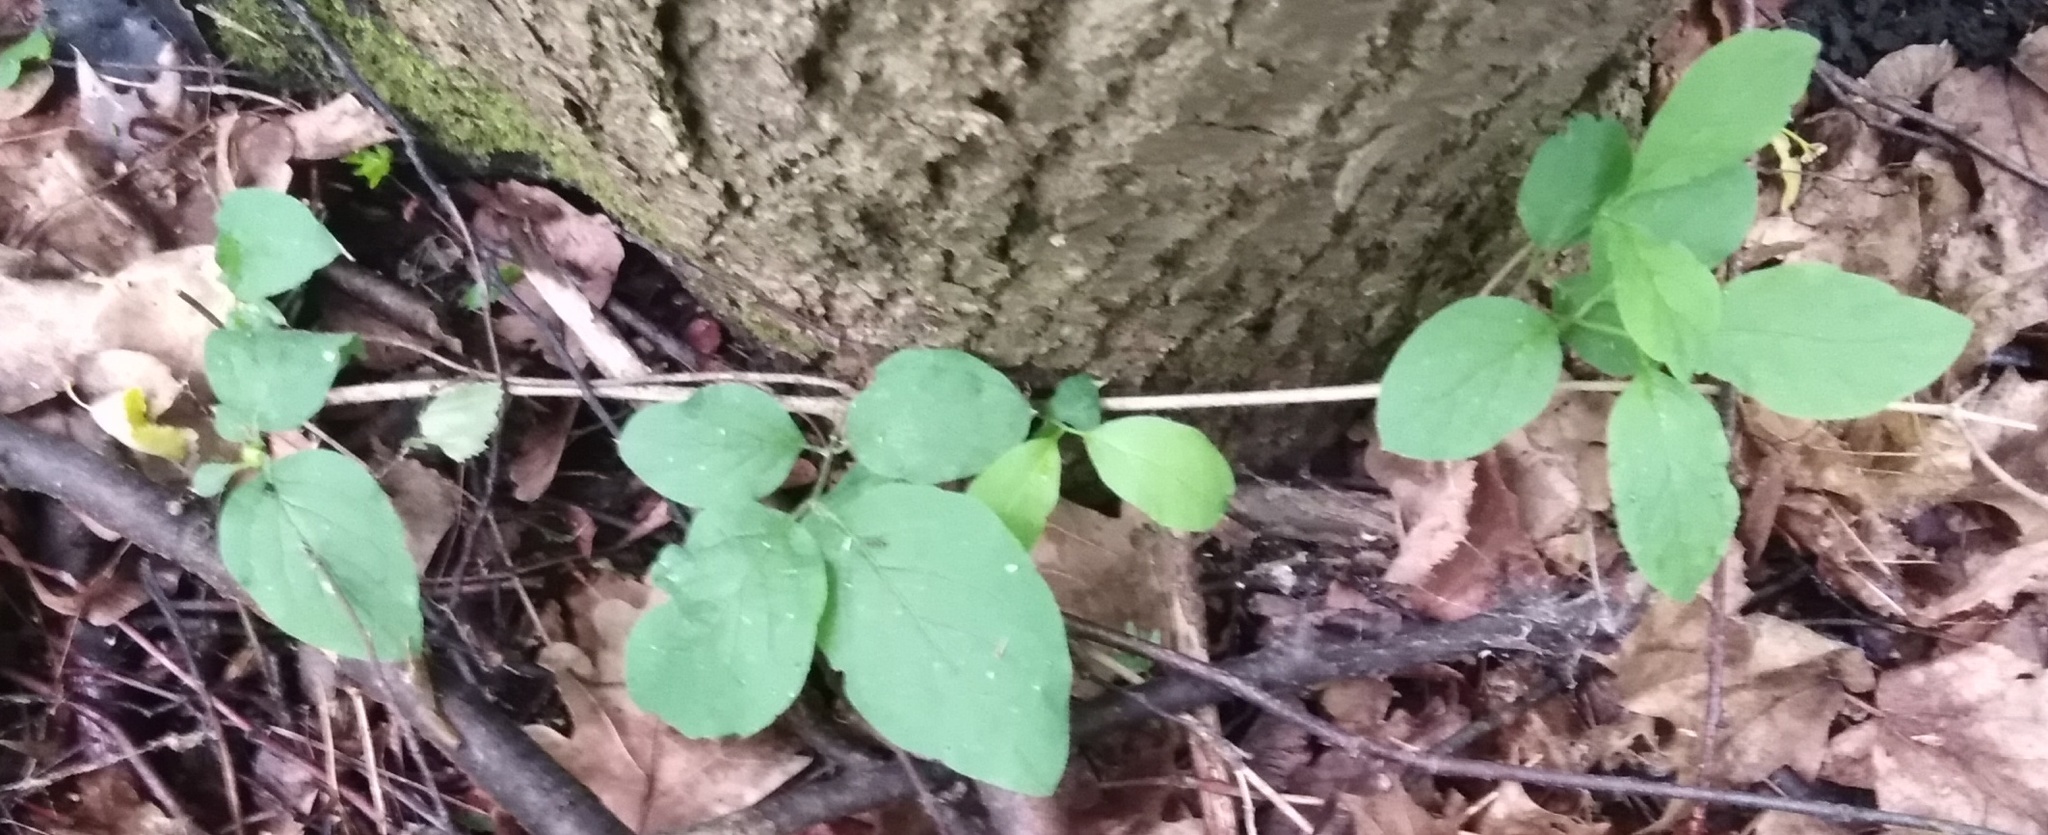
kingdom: Plantae
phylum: Tracheophyta
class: Magnoliopsida
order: Dipsacales
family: Caprifoliaceae
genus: Lonicera
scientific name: Lonicera xylosteum
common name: Fly honeysuckle
